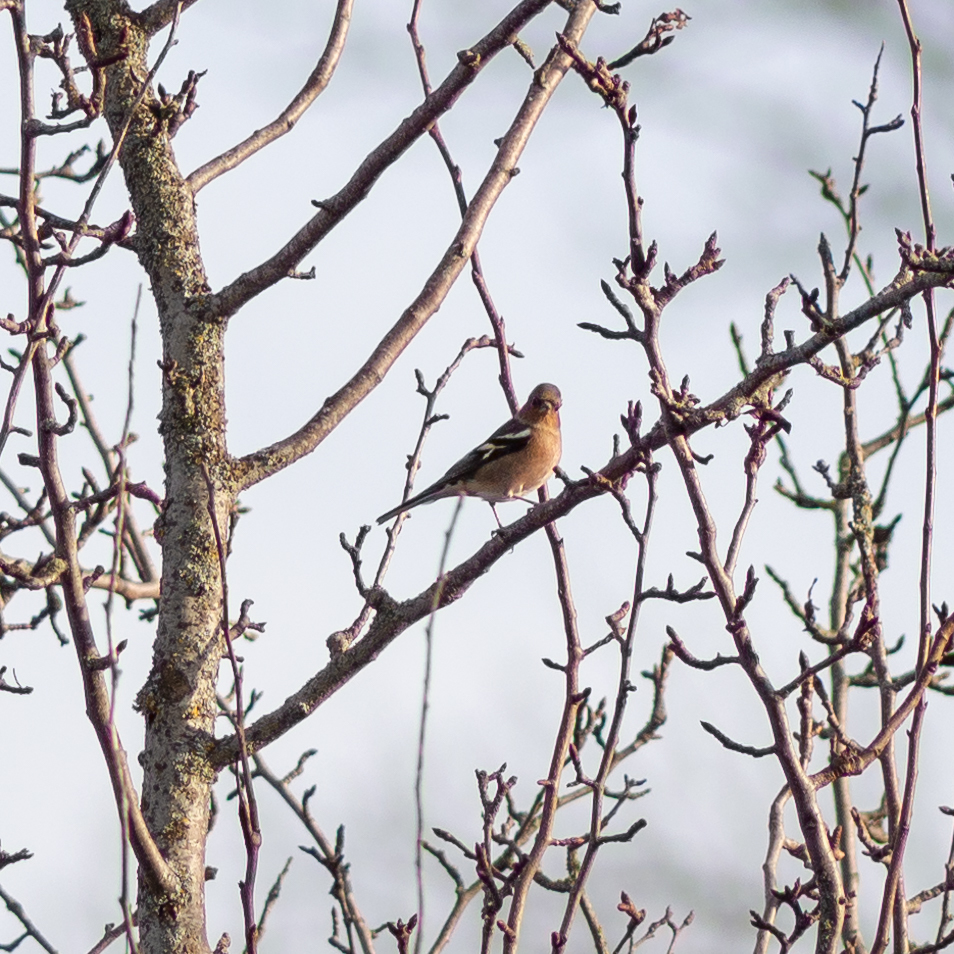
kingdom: Animalia
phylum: Chordata
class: Aves
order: Passeriformes
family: Fringillidae
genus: Fringilla
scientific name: Fringilla coelebs
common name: Common chaffinch
